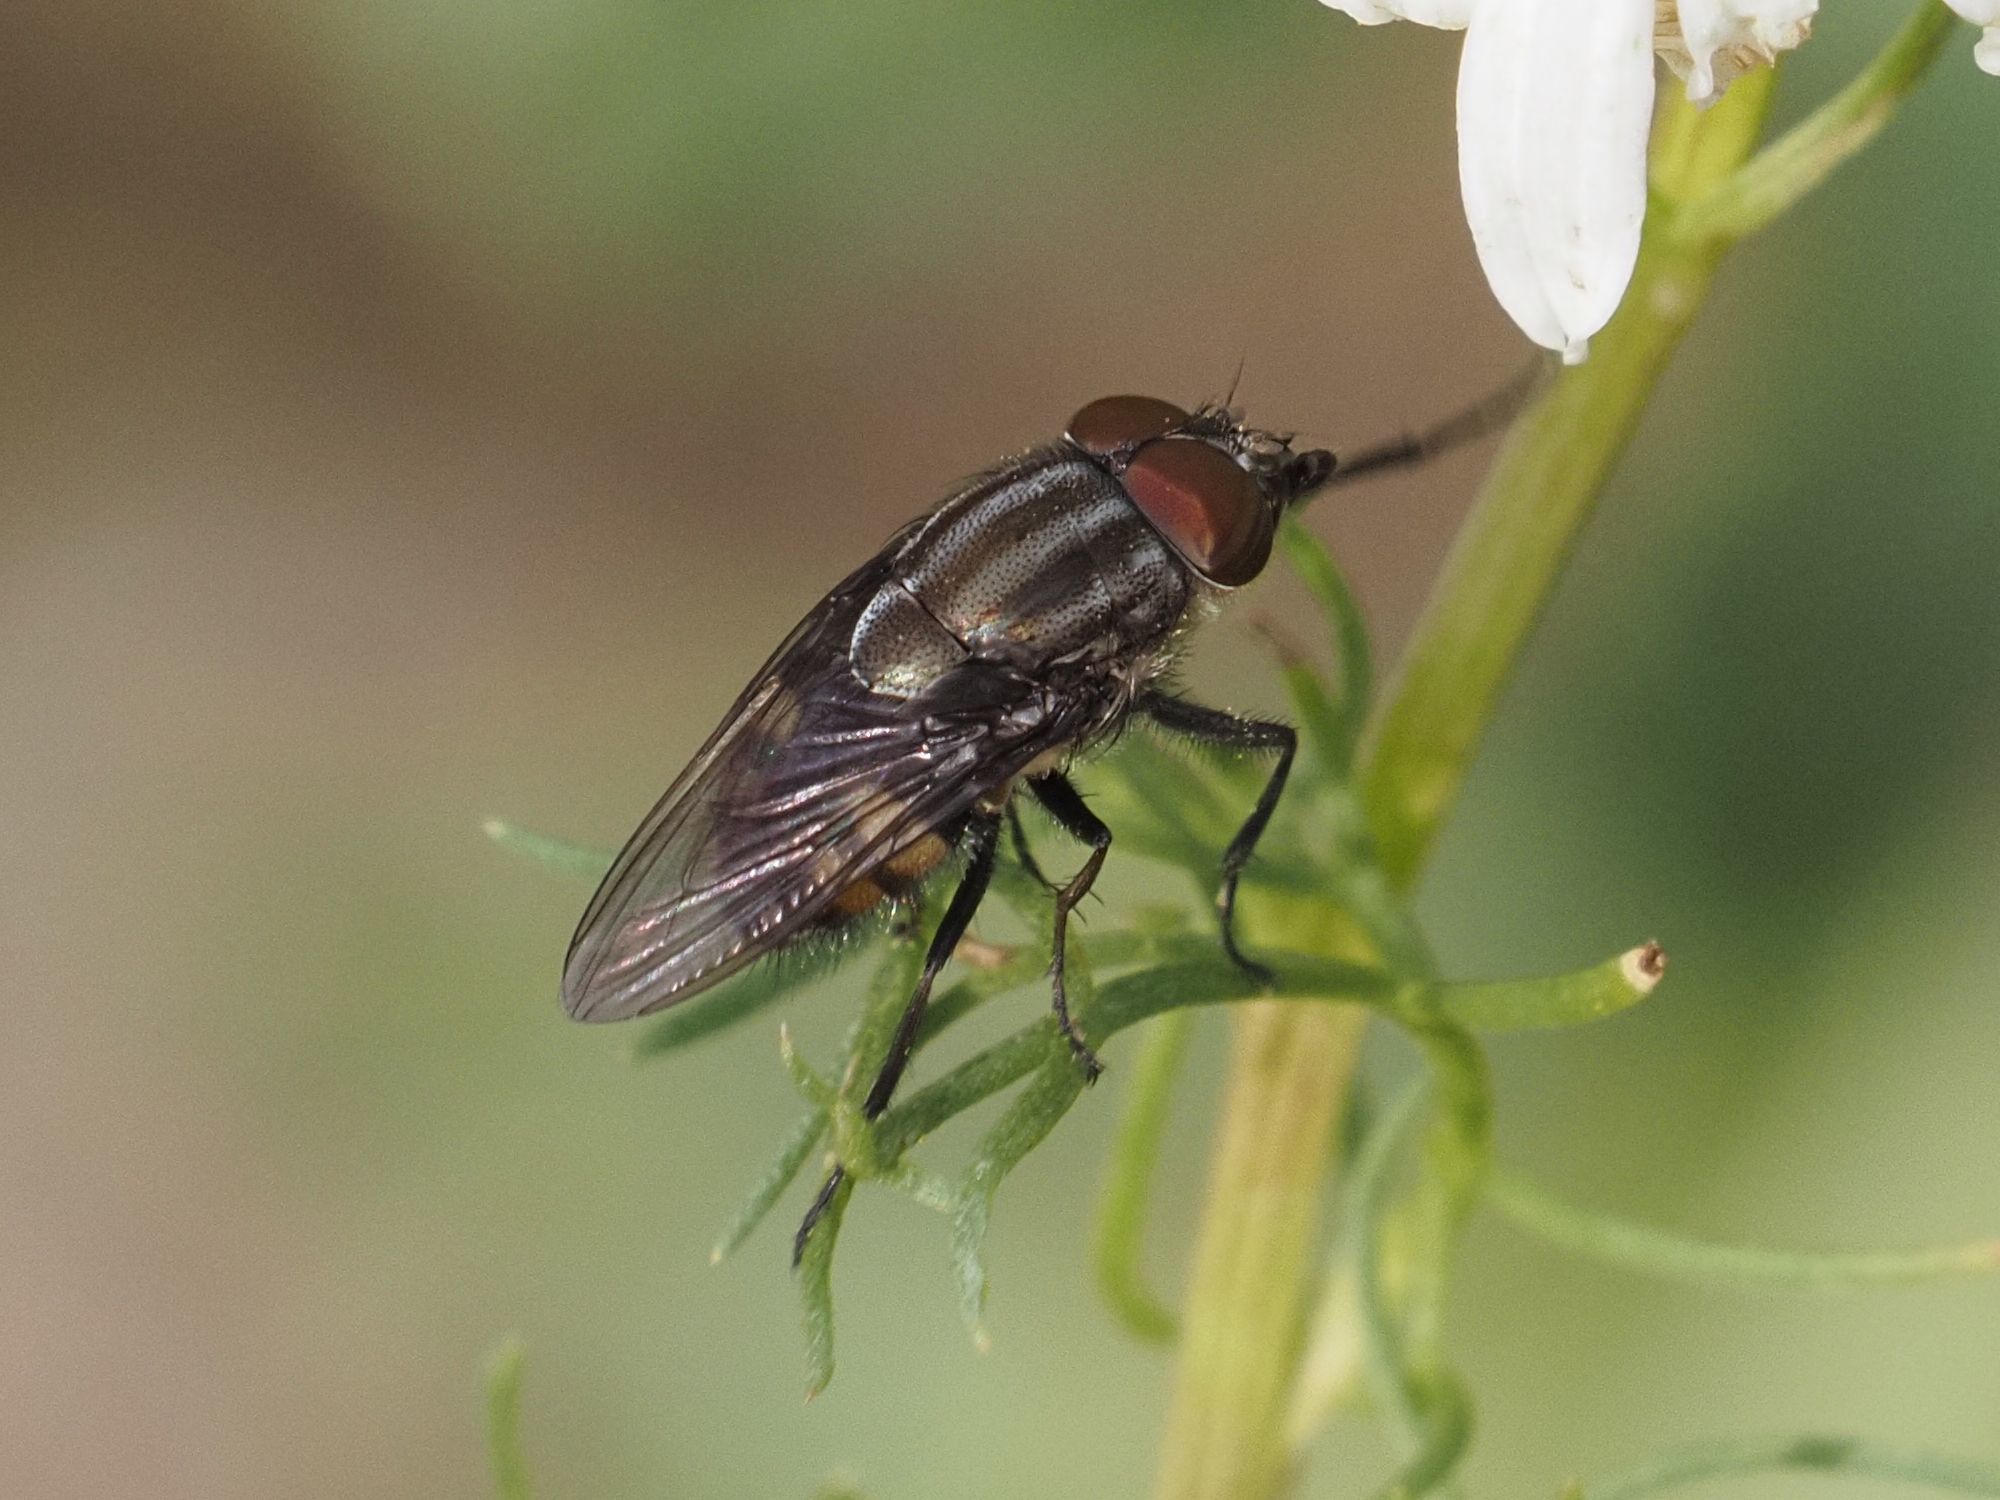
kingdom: Animalia
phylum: Arthropoda
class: Insecta
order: Diptera
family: Calliphoridae
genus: Stomorhina
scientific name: Stomorhina lunata
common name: Locust blowfly
